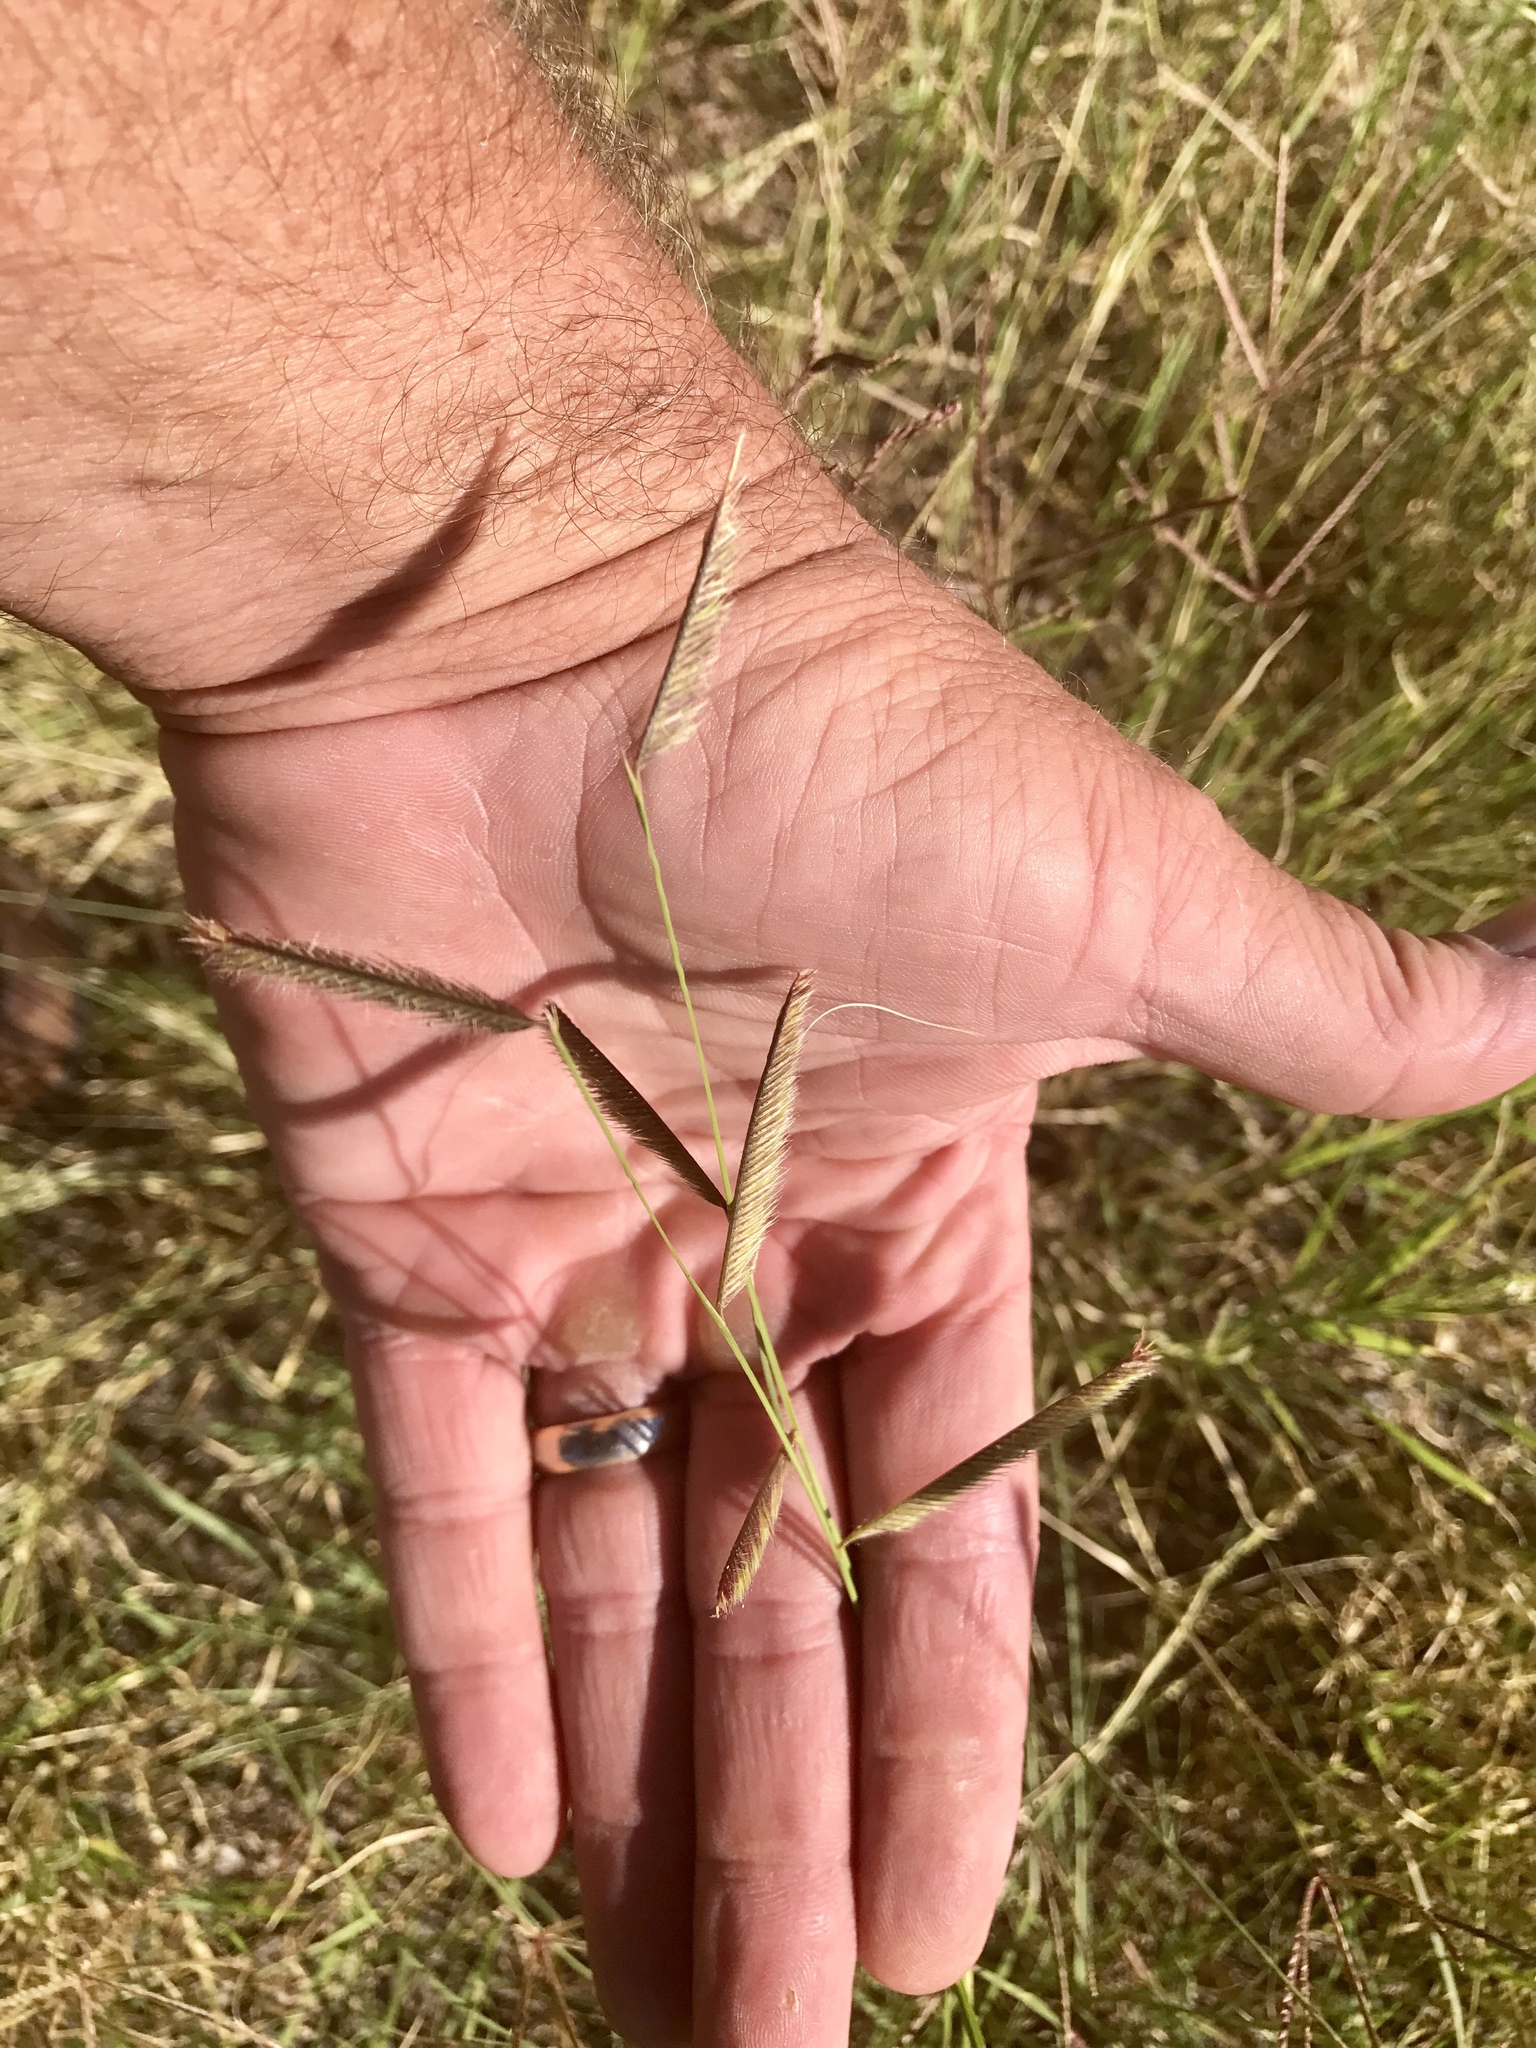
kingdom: Plantae
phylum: Tracheophyta
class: Liliopsida
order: Poales
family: Poaceae
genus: Bouteloua
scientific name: Bouteloua gracilis
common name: Blue grama
